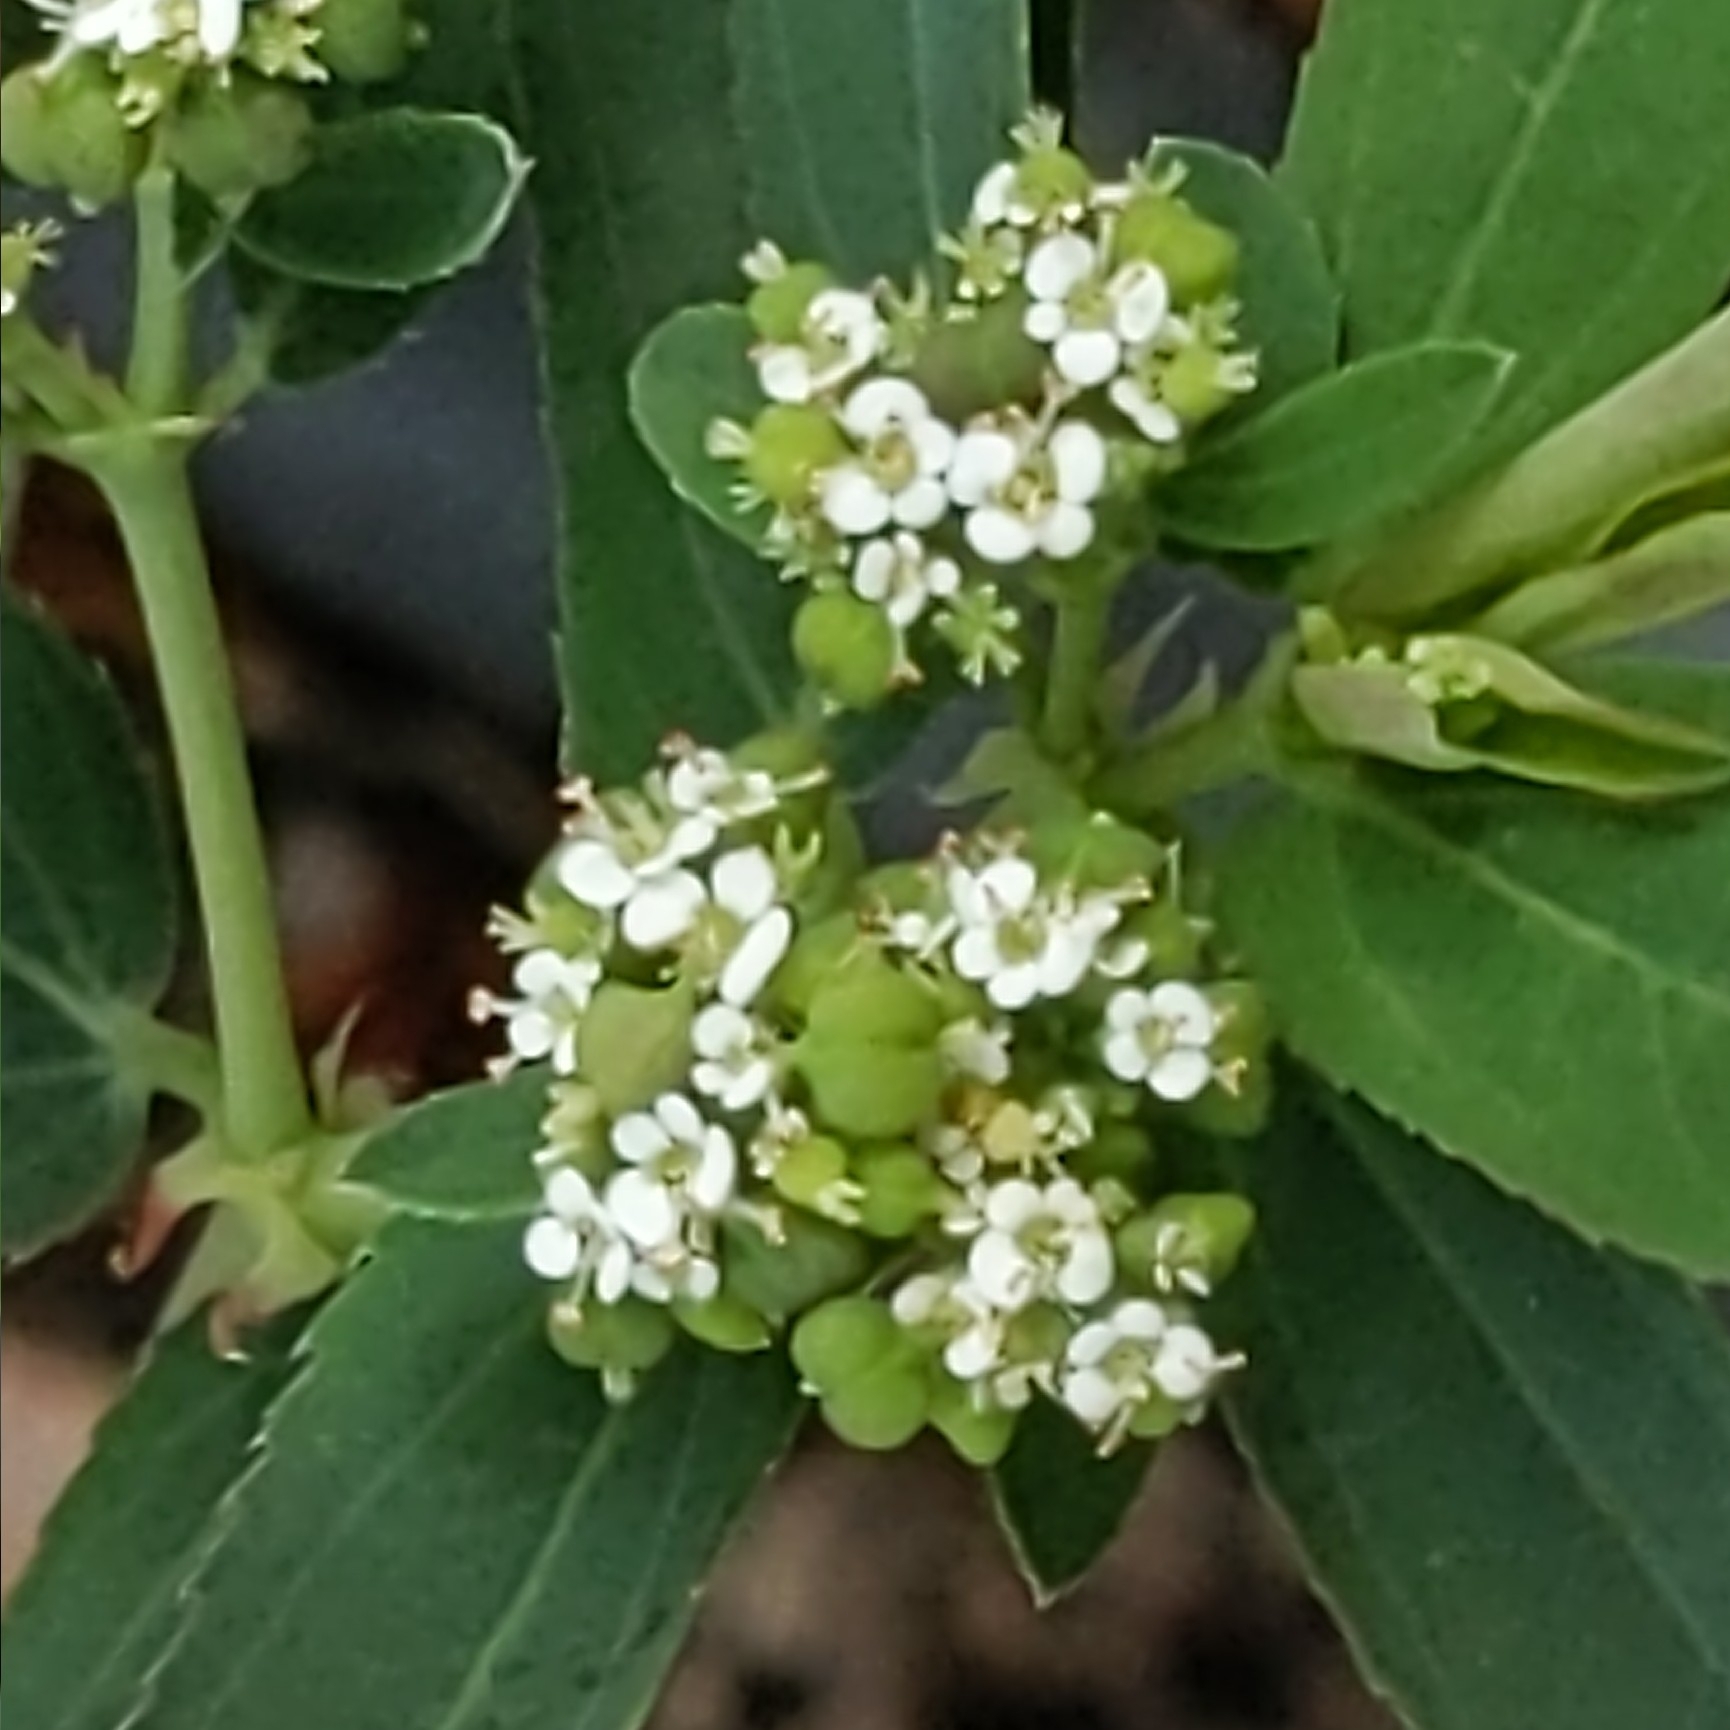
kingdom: Plantae
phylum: Tracheophyta
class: Magnoliopsida
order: Malpighiales
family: Euphorbiaceae
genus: Euphorbia
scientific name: Euphorbia hypericifolia
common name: Graceful sandmat
